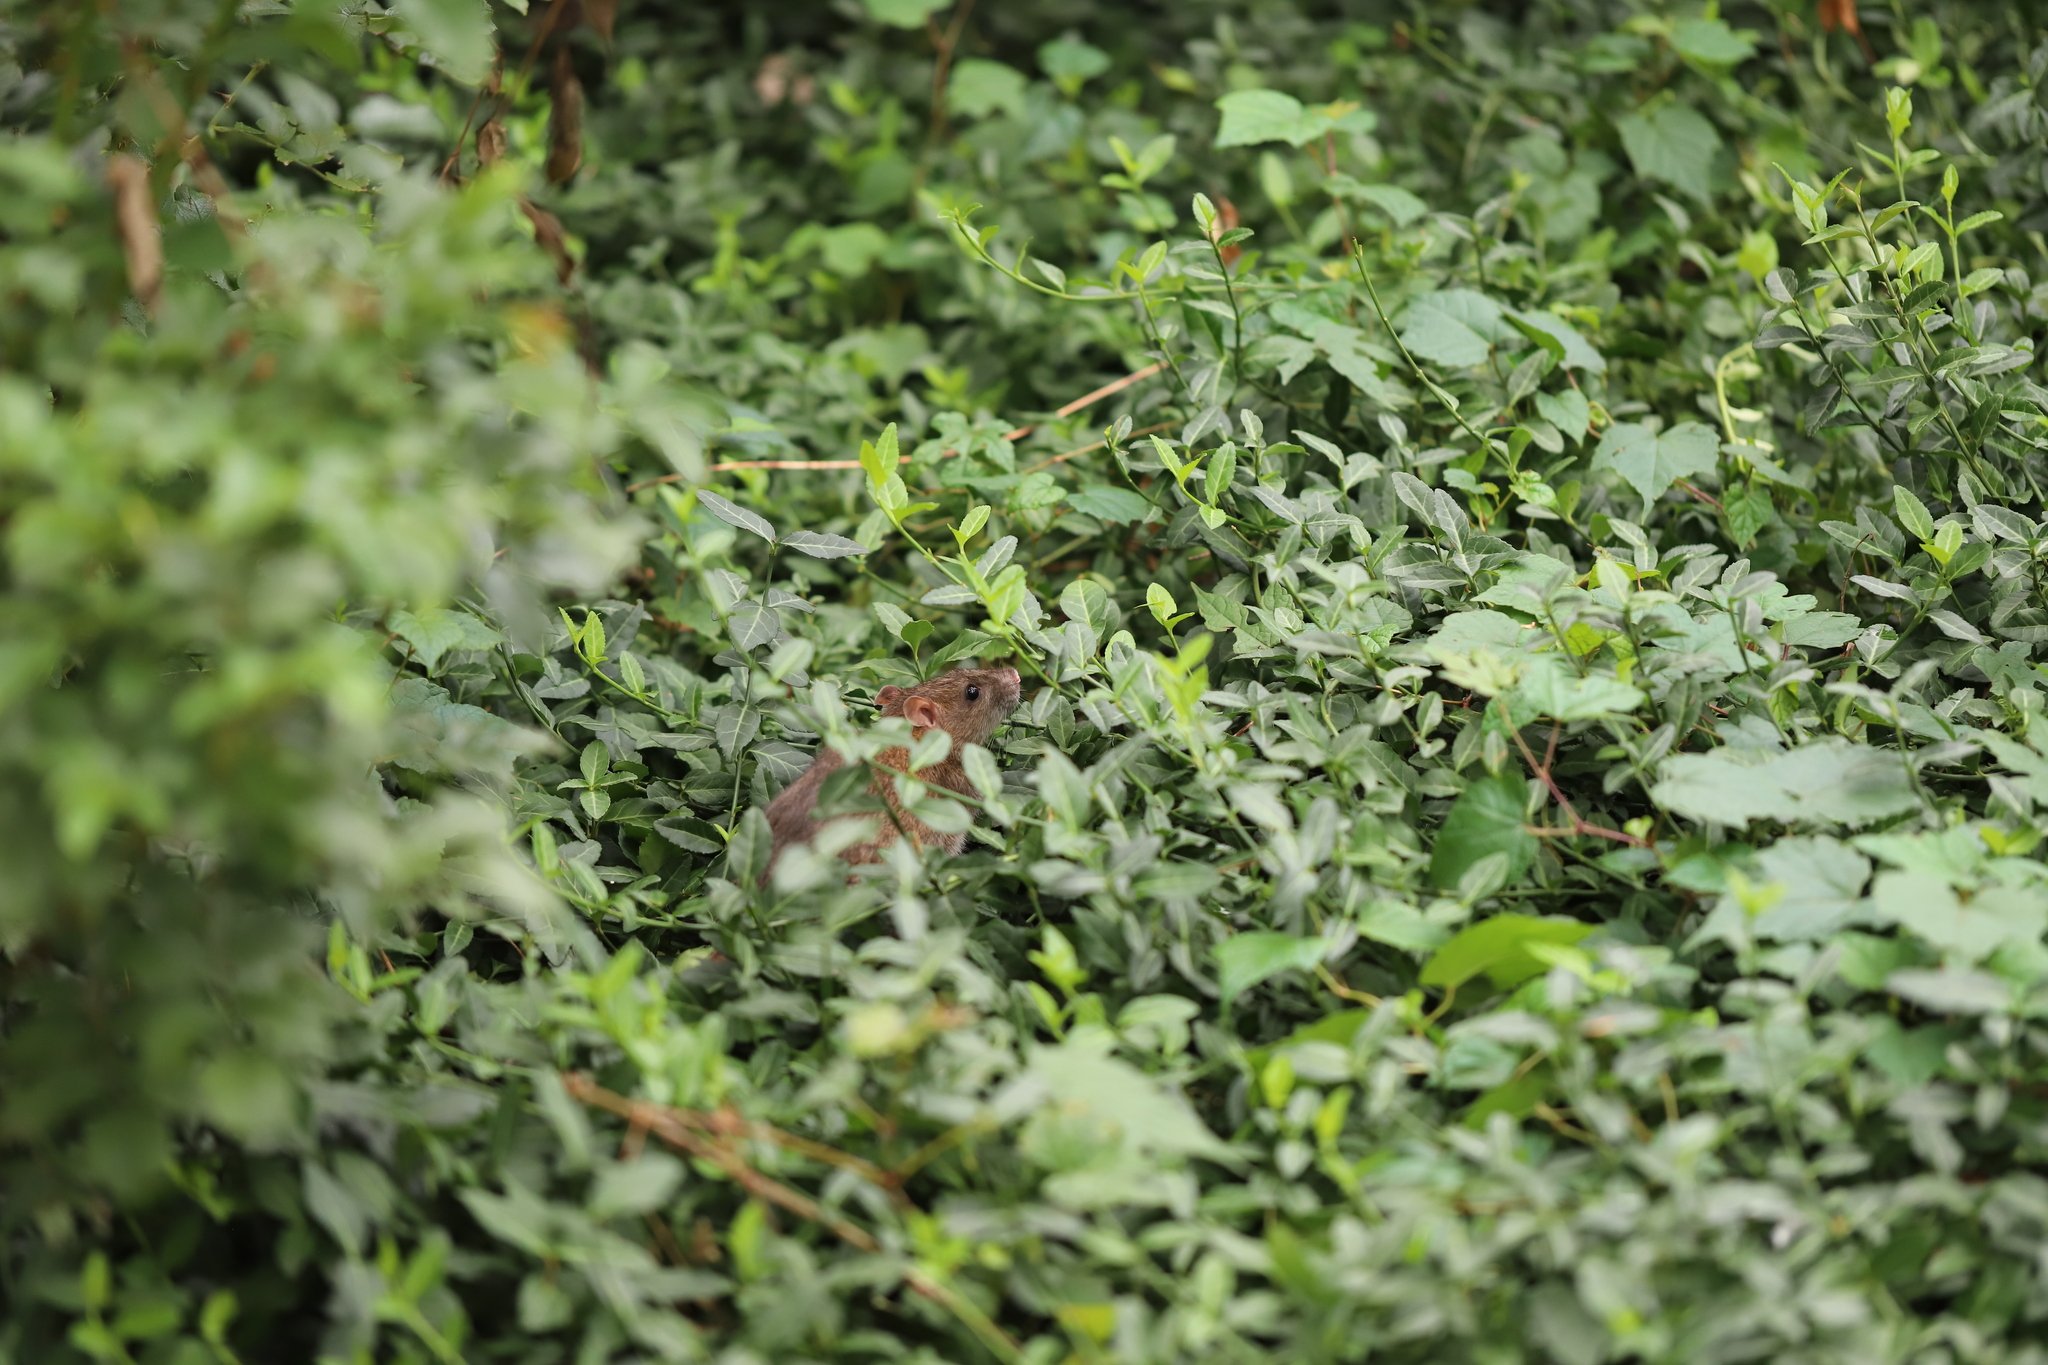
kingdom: Animalia
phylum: Chordata
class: Mammalia
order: Rodentia
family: Muridae
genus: Rattus
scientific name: Rattus norvegicus
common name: Brown rat
